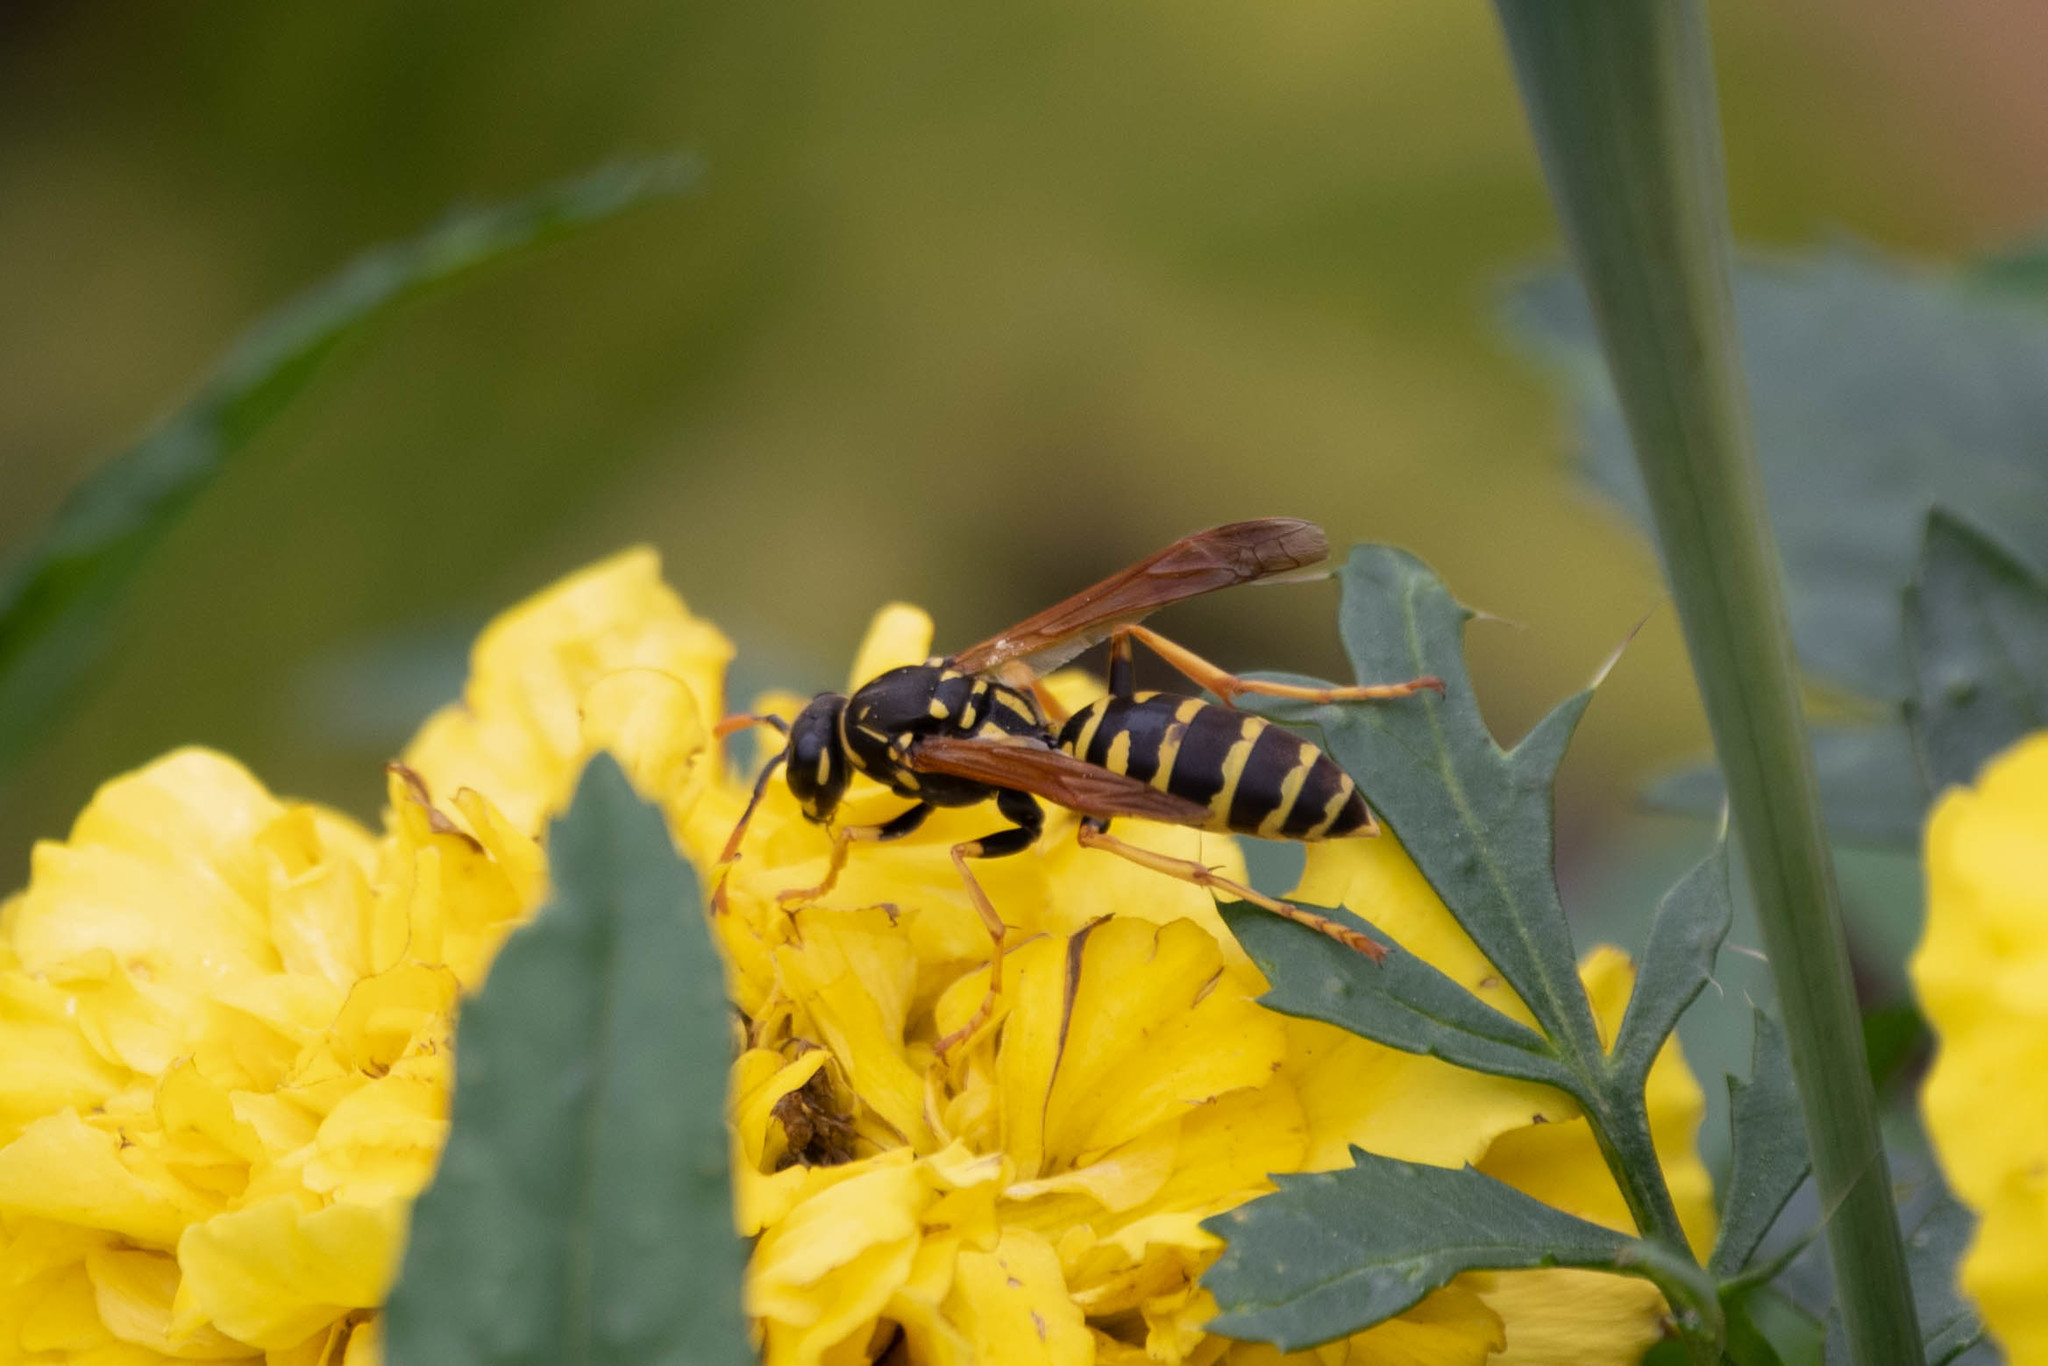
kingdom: Animalia
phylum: Arthropoda
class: Insecta
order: Hymenoptera
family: Eumenidae
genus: Polistes
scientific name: Polistes dominula
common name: Paper wasp
